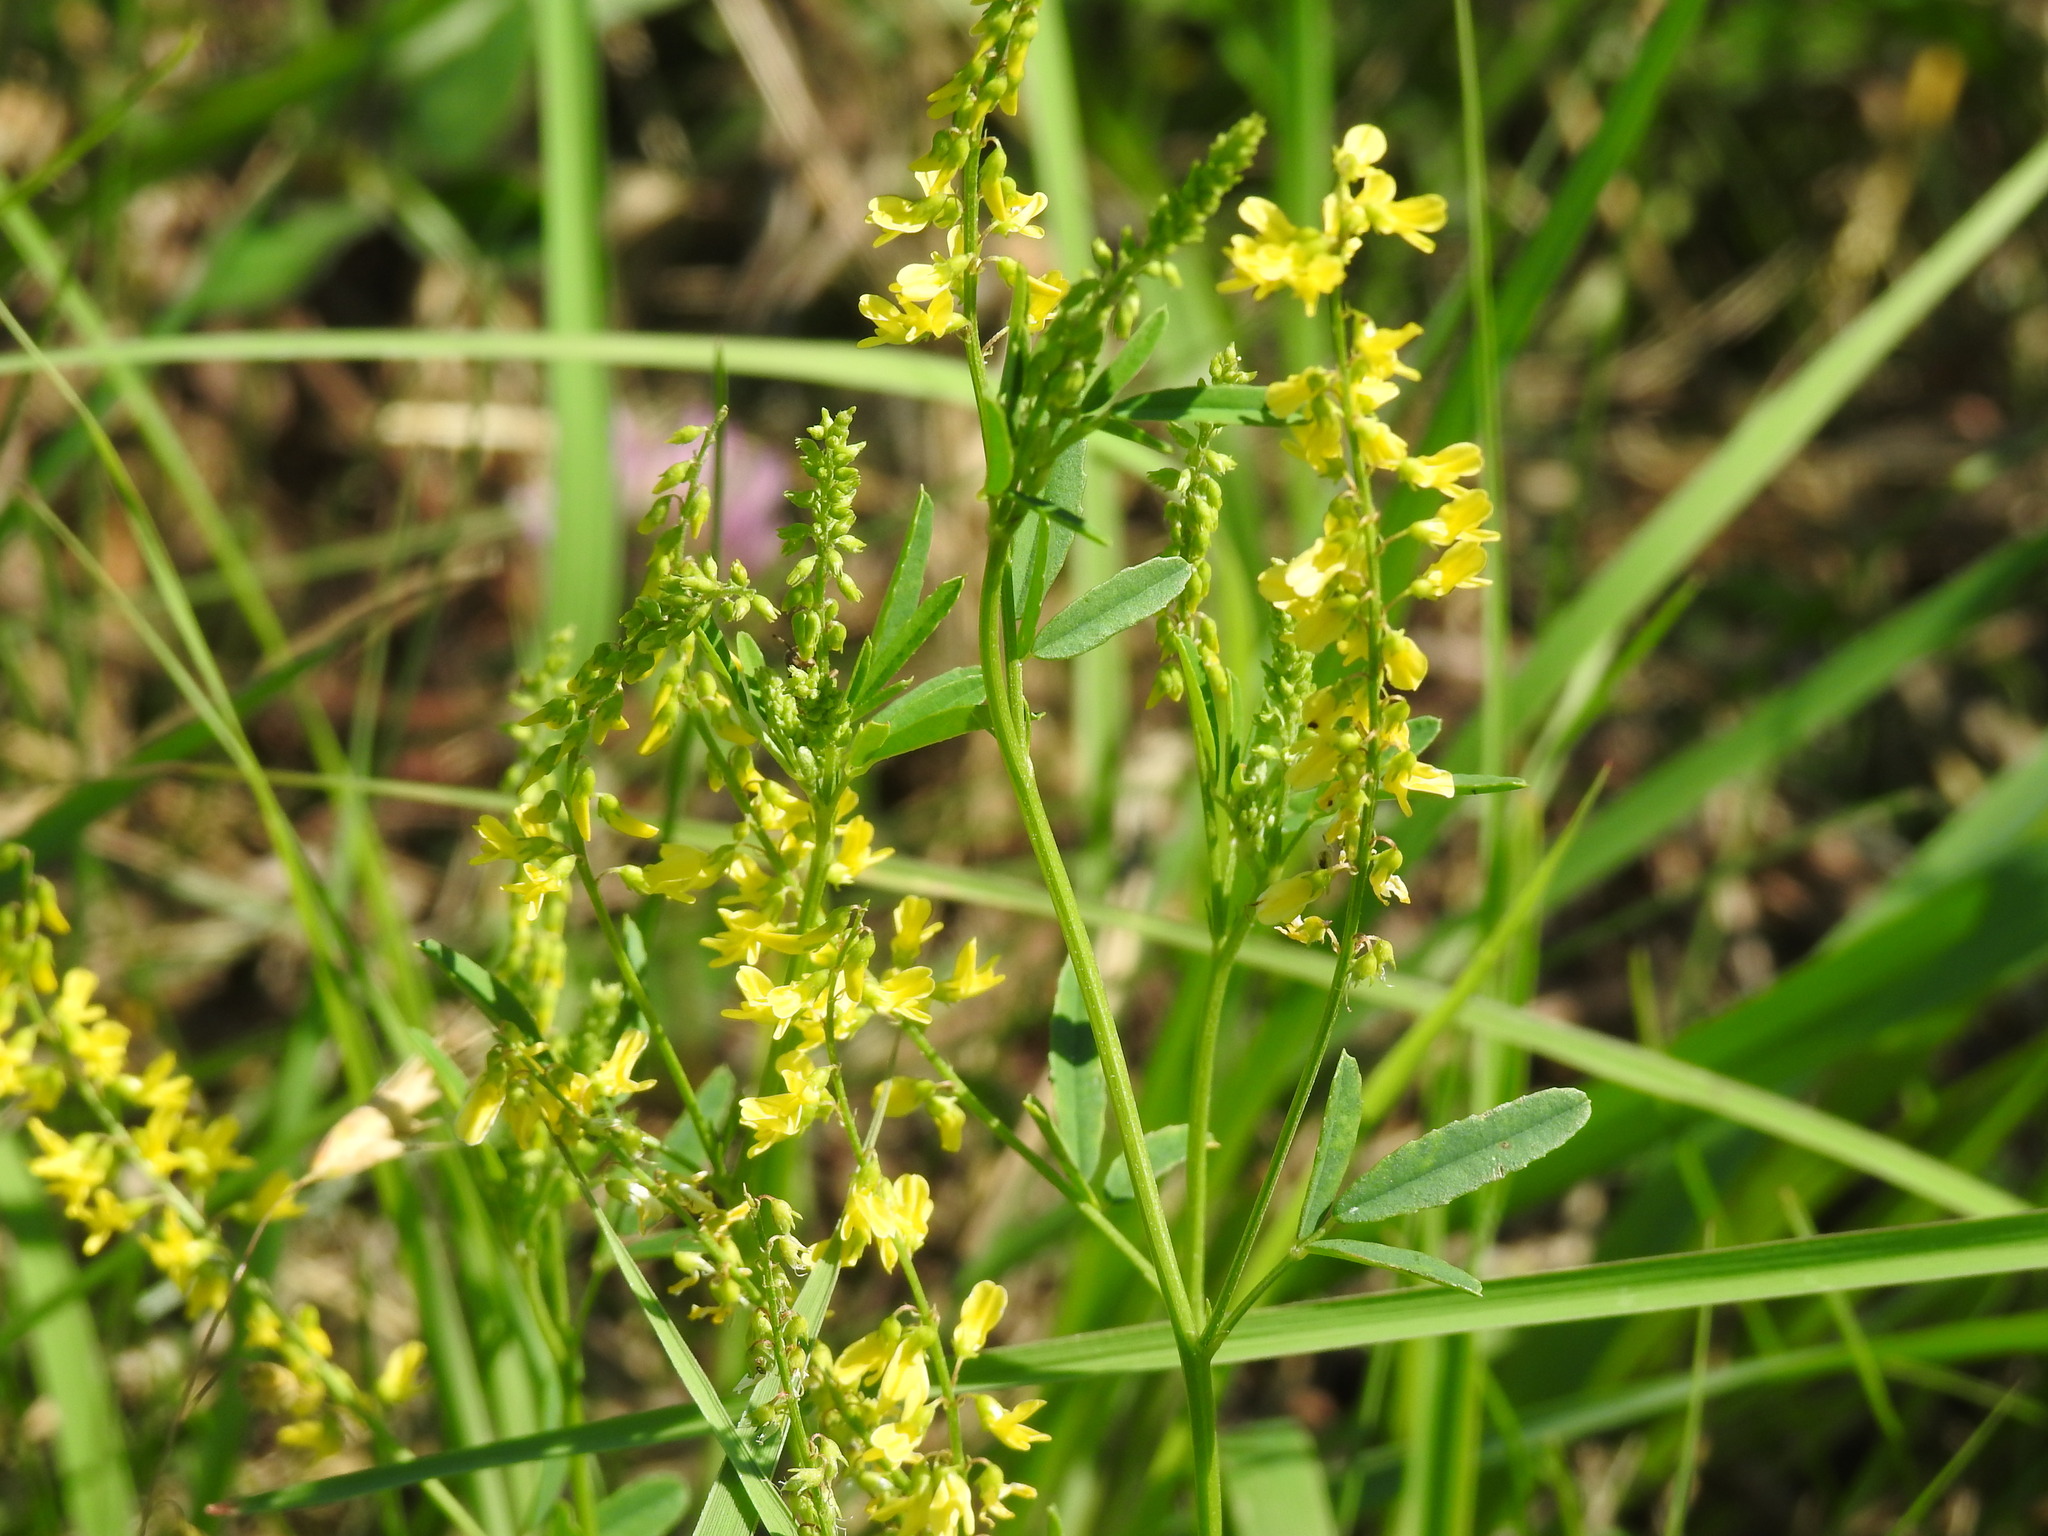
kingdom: Plantae
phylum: Tracheophyta
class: Magnoliopsida
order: Fabales
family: Fabaceae
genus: Melilotus
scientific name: Melilotus officinalis
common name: Sweetclover
